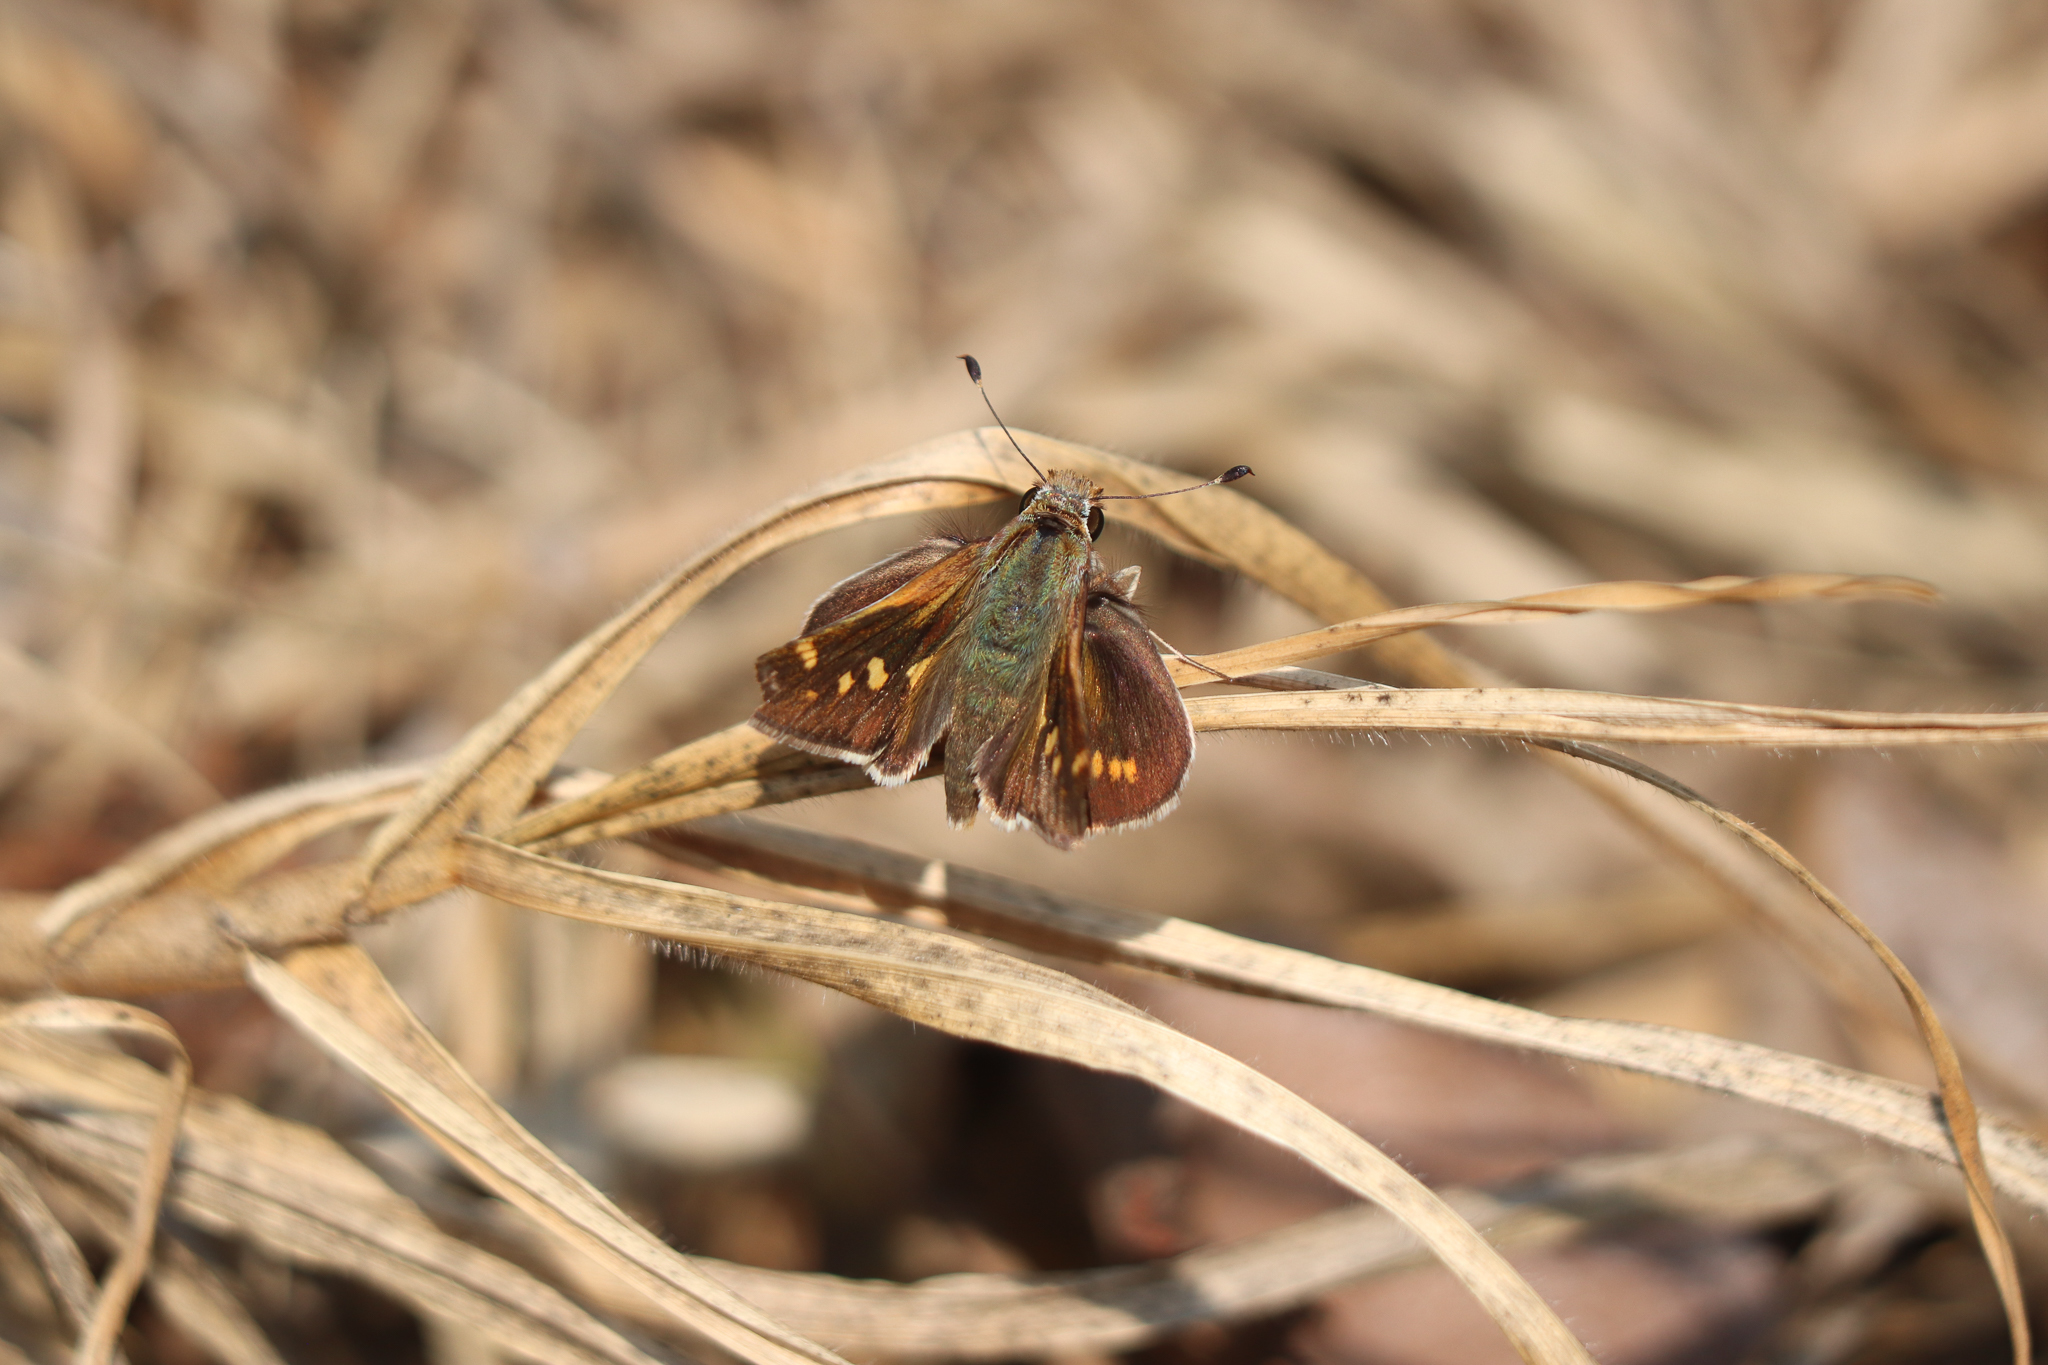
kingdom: Animalia
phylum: Arthropoda
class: Insecta
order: Lepidoptera
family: Hesperiidae
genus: Lon
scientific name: Lon
